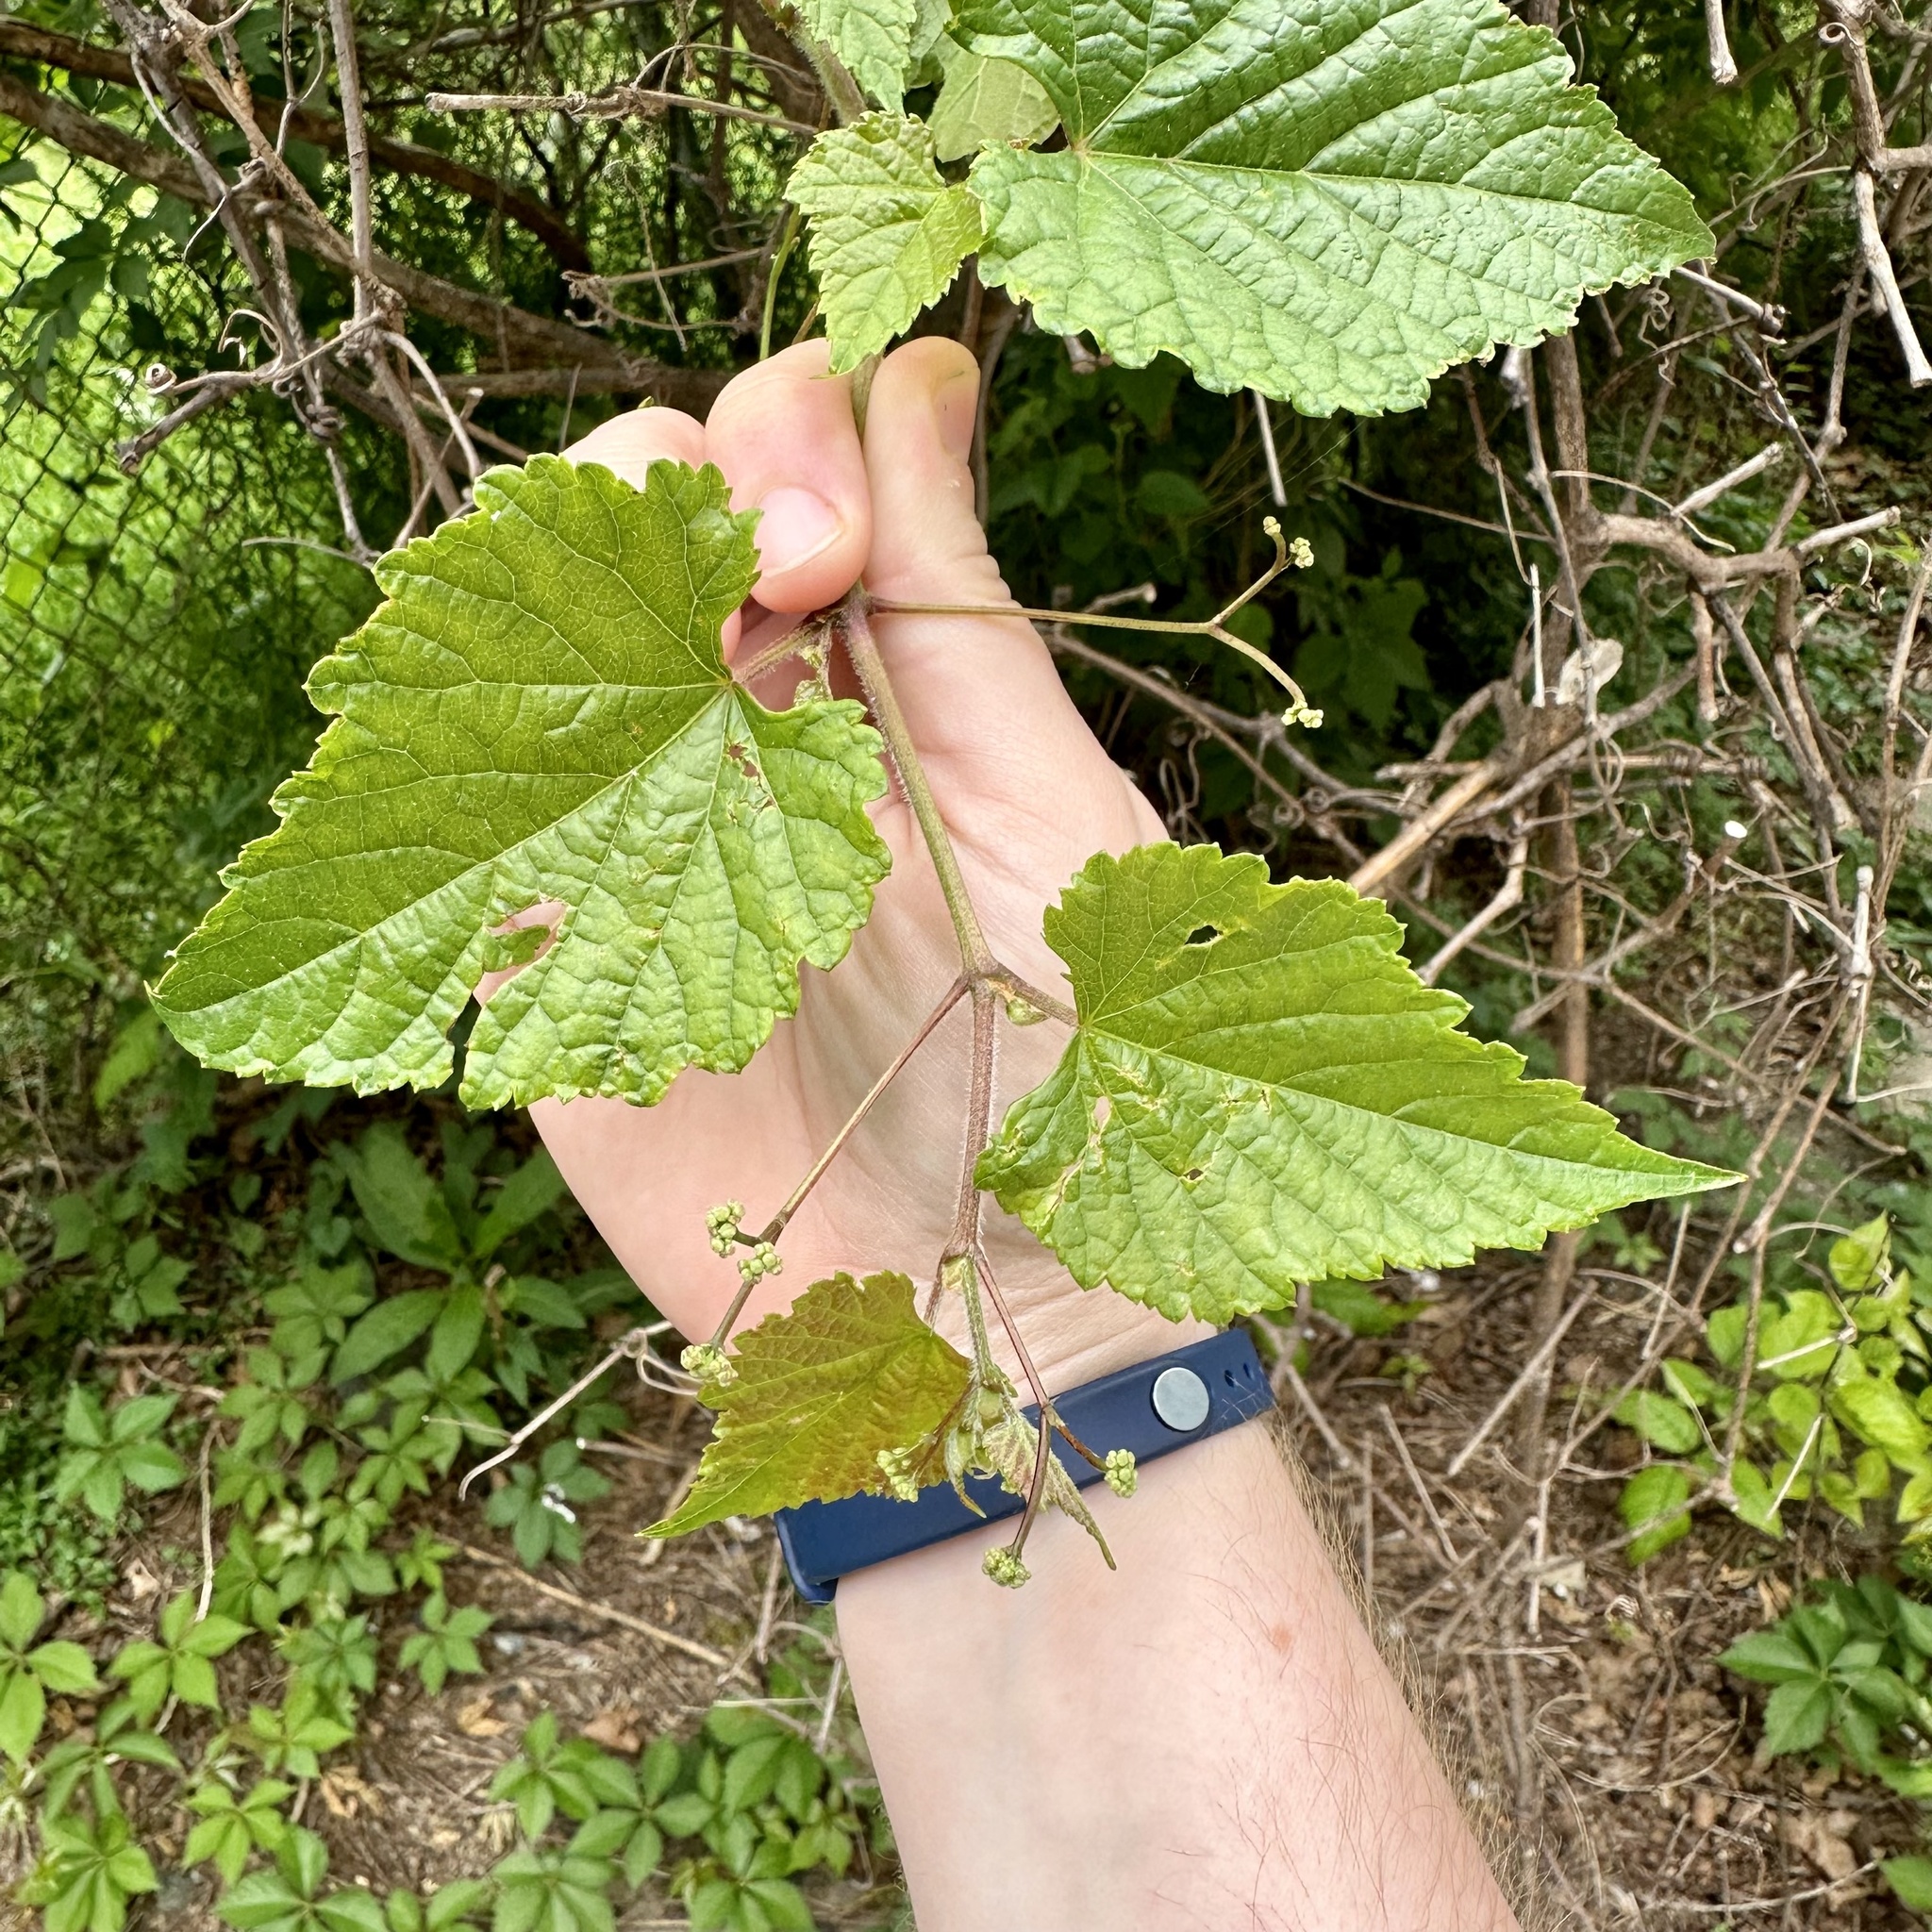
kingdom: Plantae
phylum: Tracheophyta
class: Magnoliopsida
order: Vitales
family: Vitaceae
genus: Ampelopsis
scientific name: Ampelopsis glandulosa
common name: Amur peppervine
